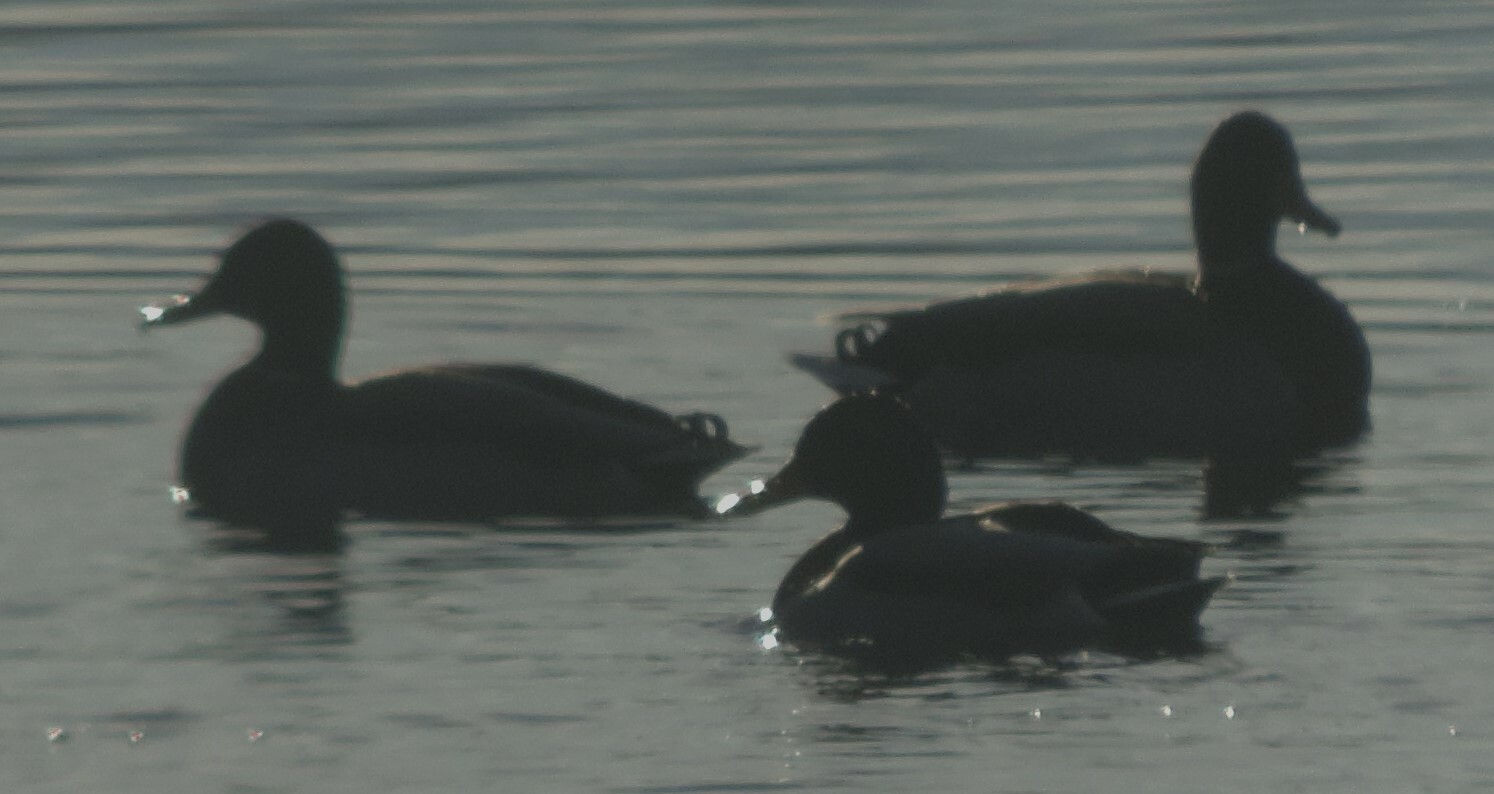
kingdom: Animalia
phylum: Chordata
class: Aves
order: Anseriformes
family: Anatidae
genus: Anas
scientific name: Anas platyrhynchos
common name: Mallard
